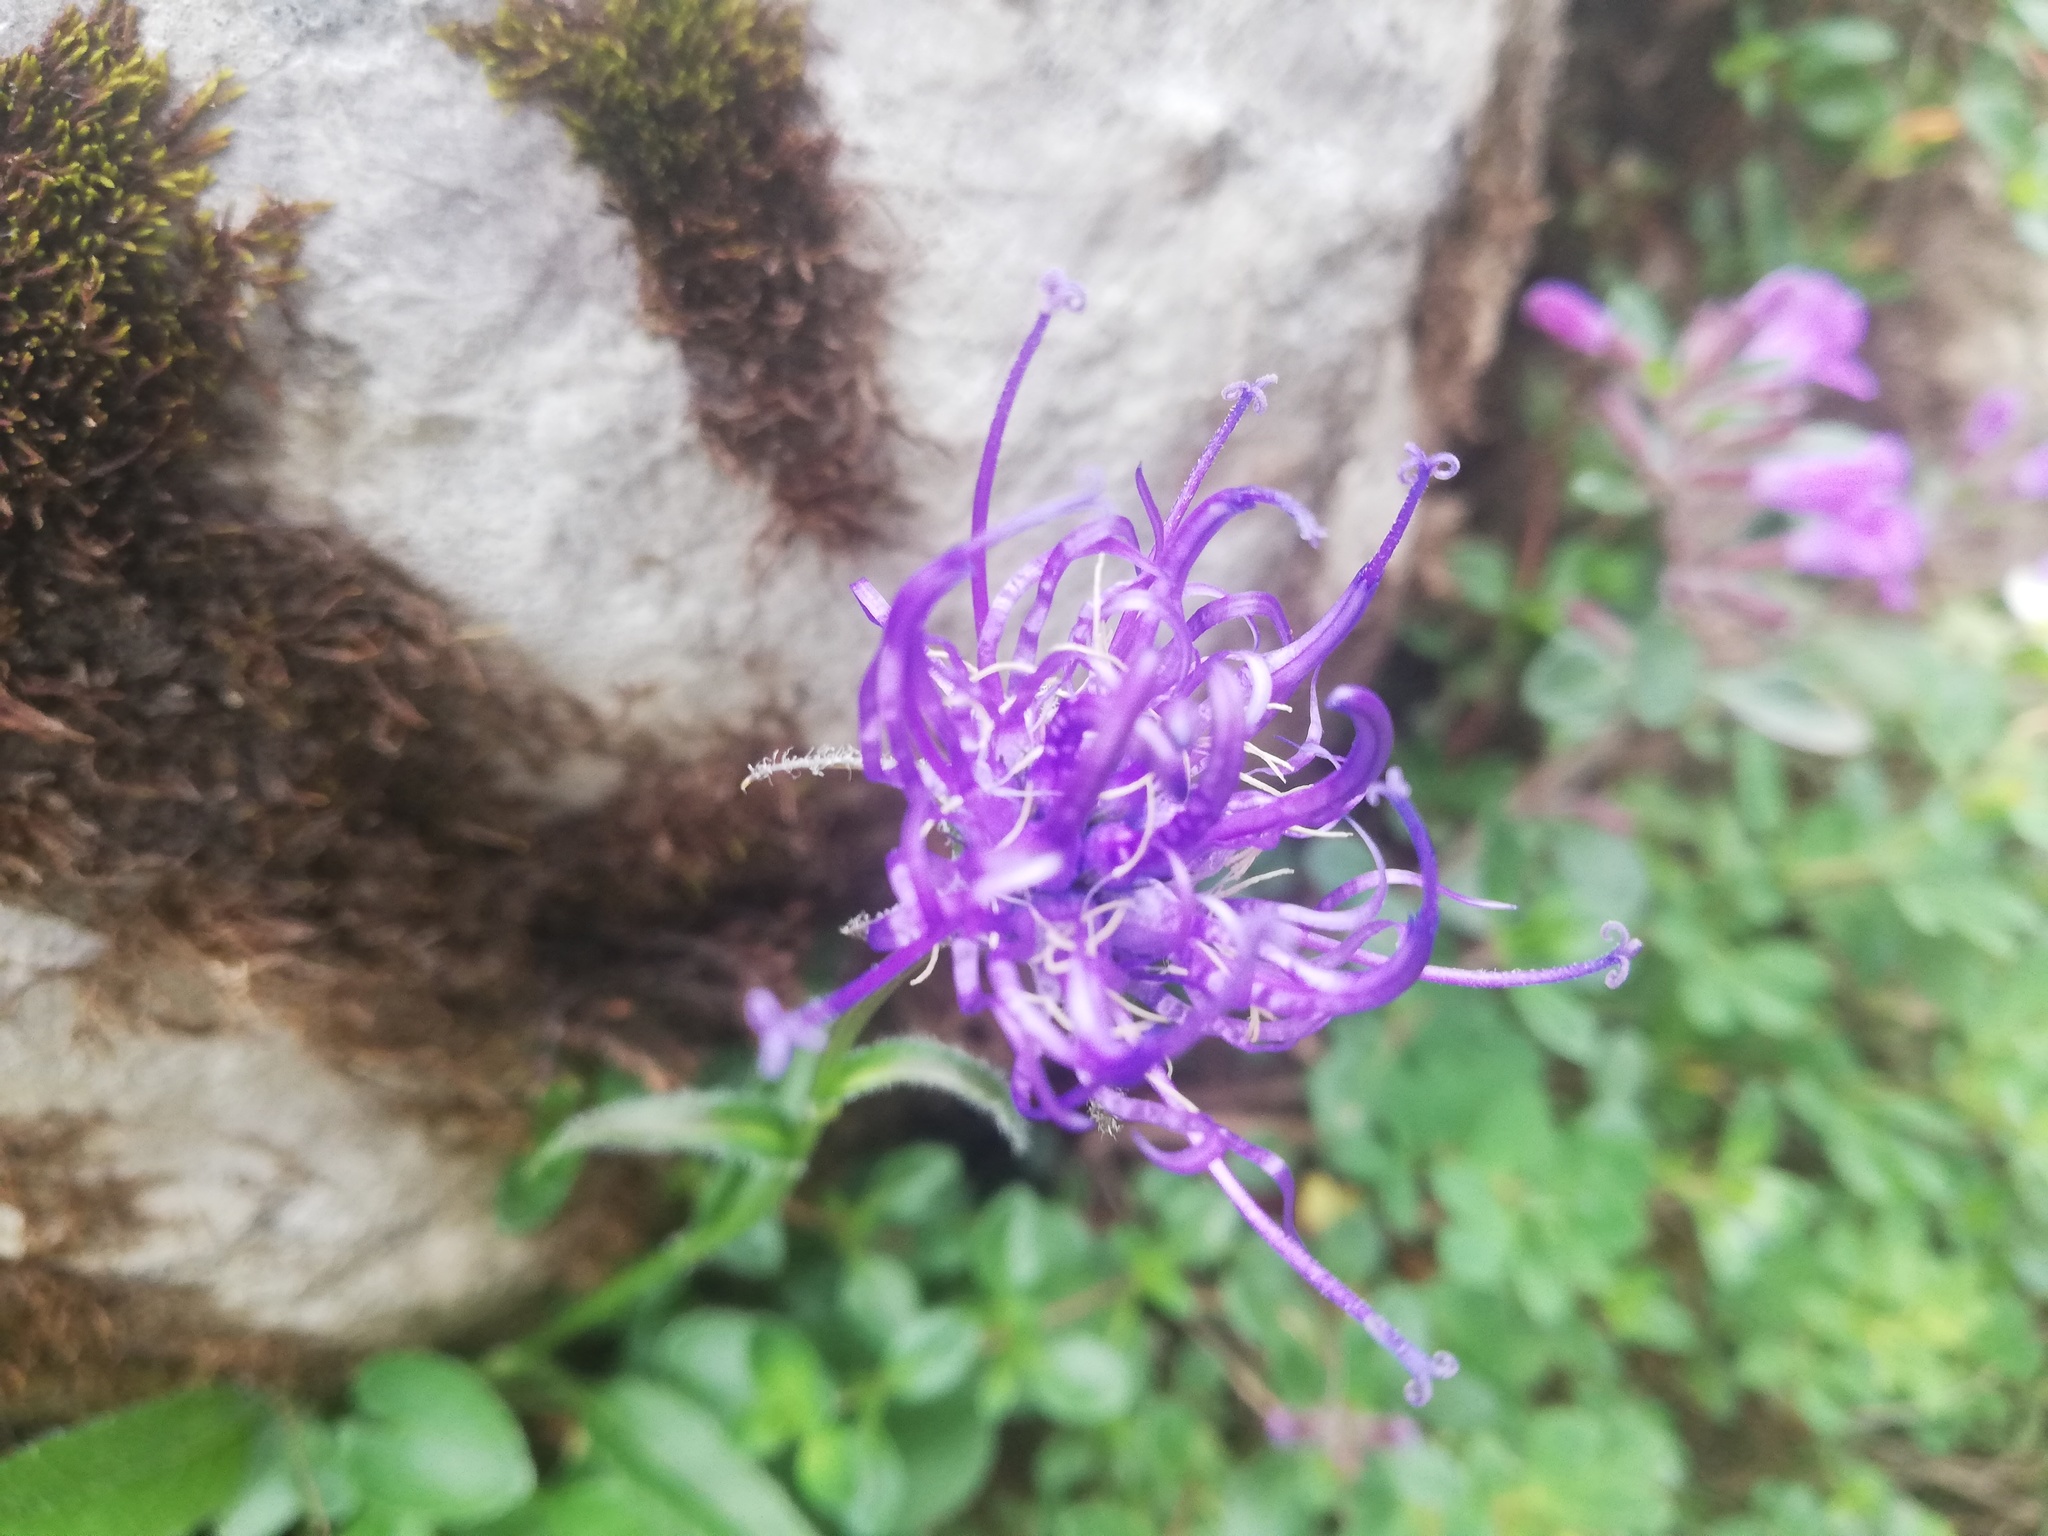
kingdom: Plantae
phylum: Tracheophyta
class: Magnoliopsida
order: Asterales
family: Campanulaceae
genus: Phyteuma
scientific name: Phyteuma orbiculare
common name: Round-headed rampion
